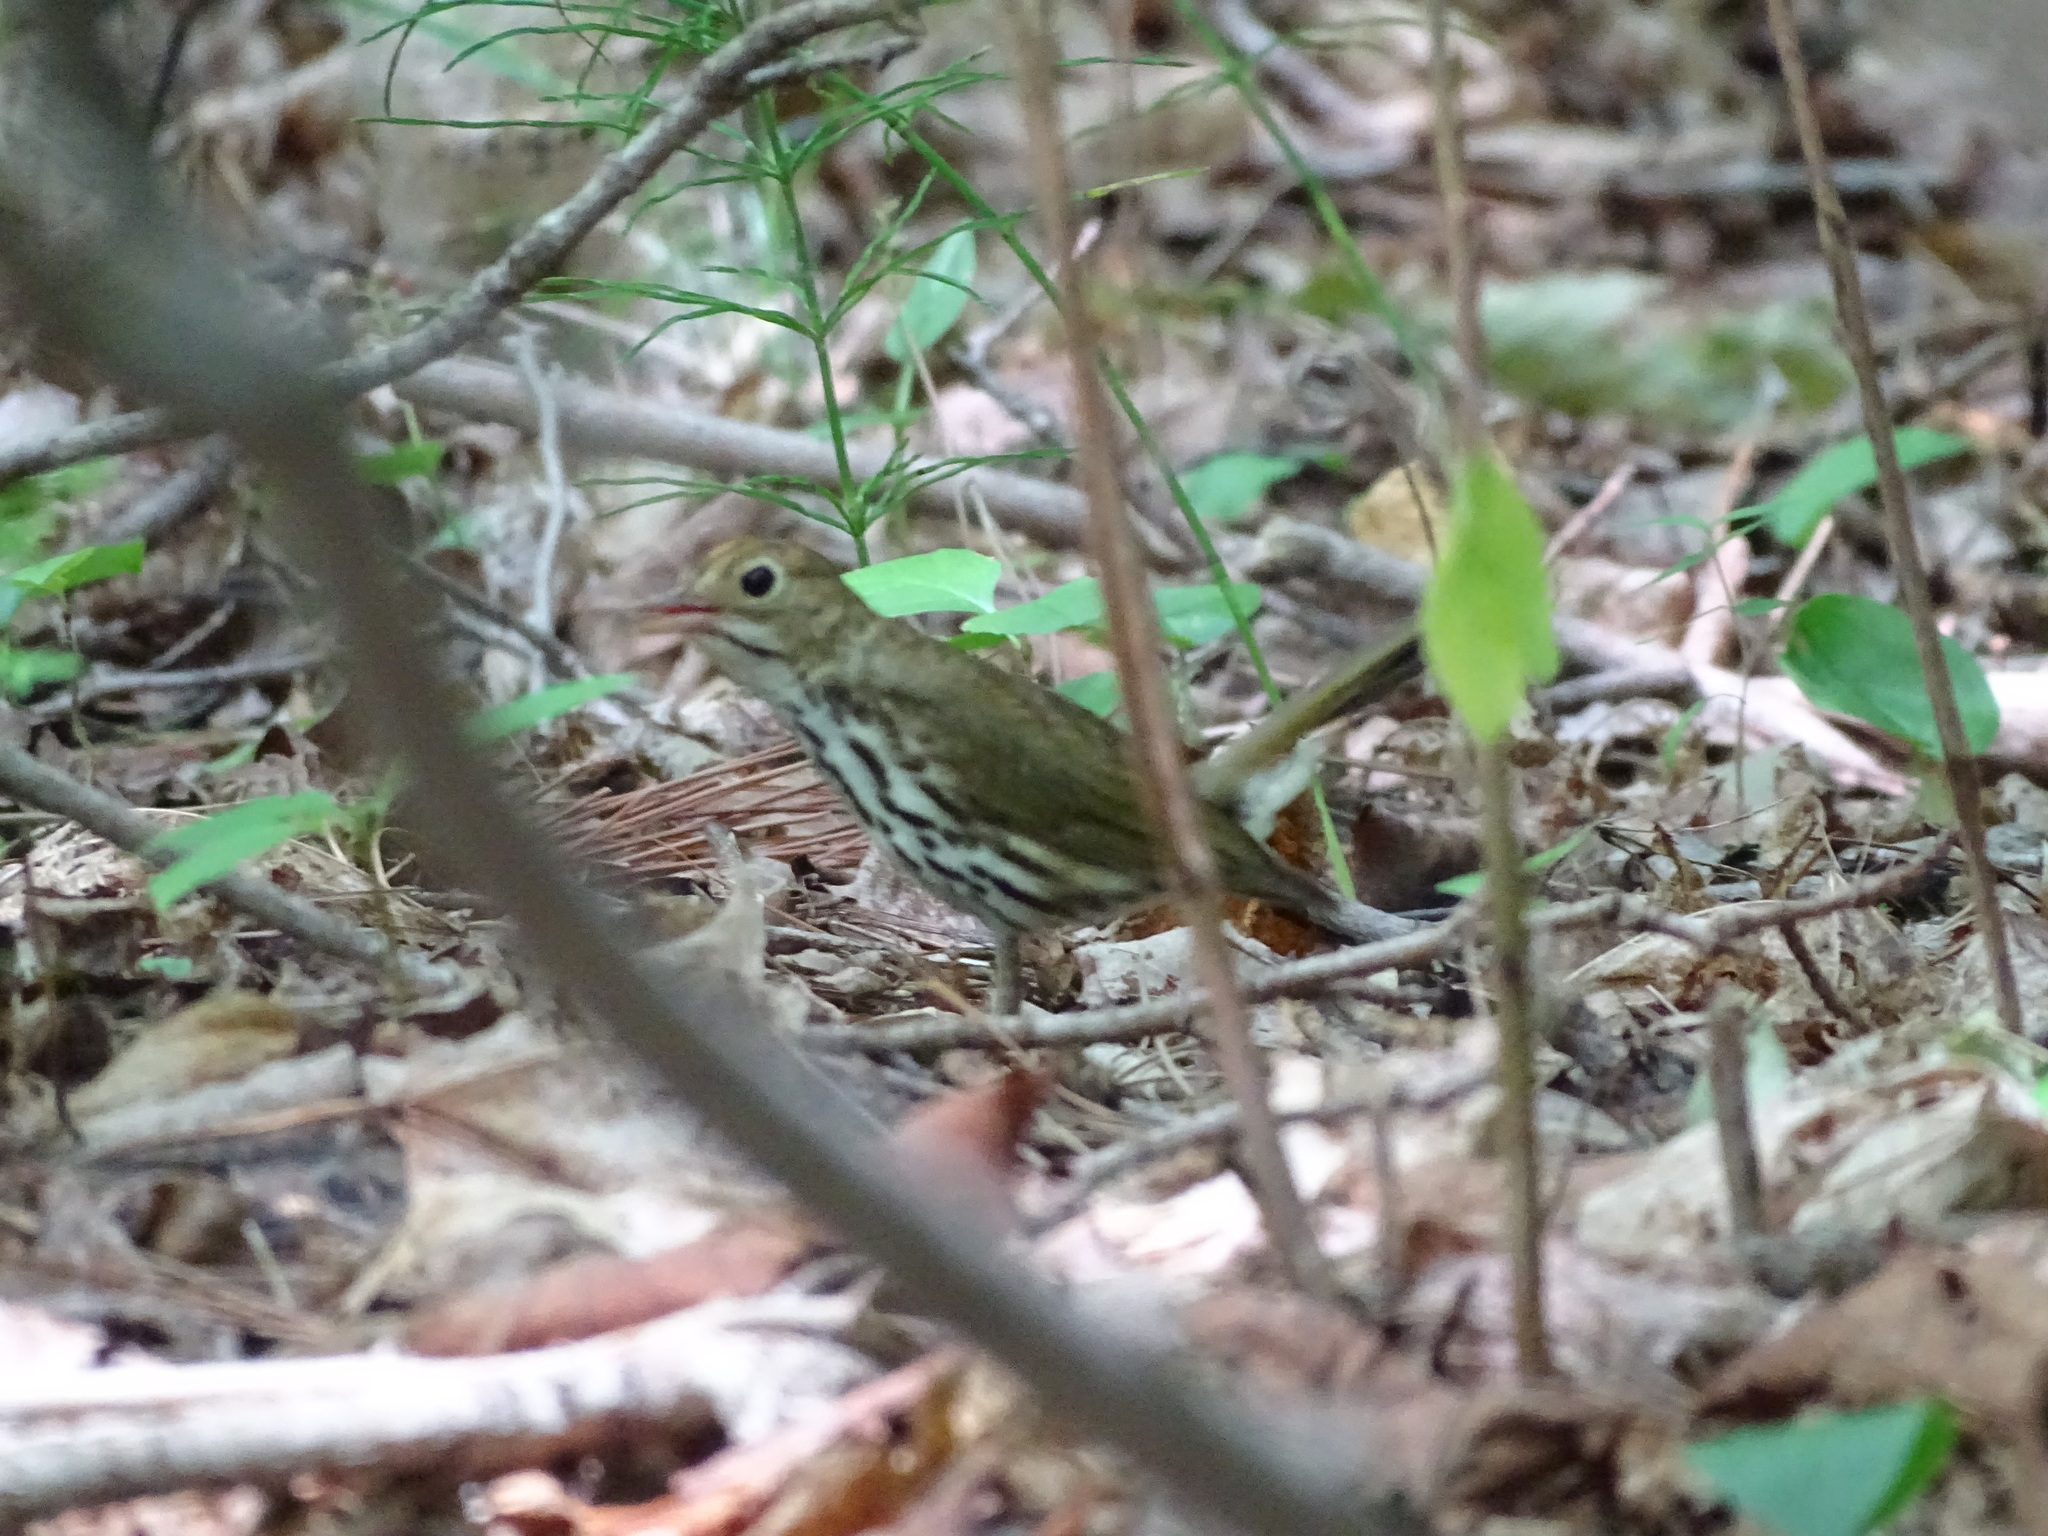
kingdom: Animalia
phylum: Chordata
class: Aves
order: Passeriformes
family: Parulidae
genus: Seiurus
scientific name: Seiurus aurocapilla
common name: Ovenbird
